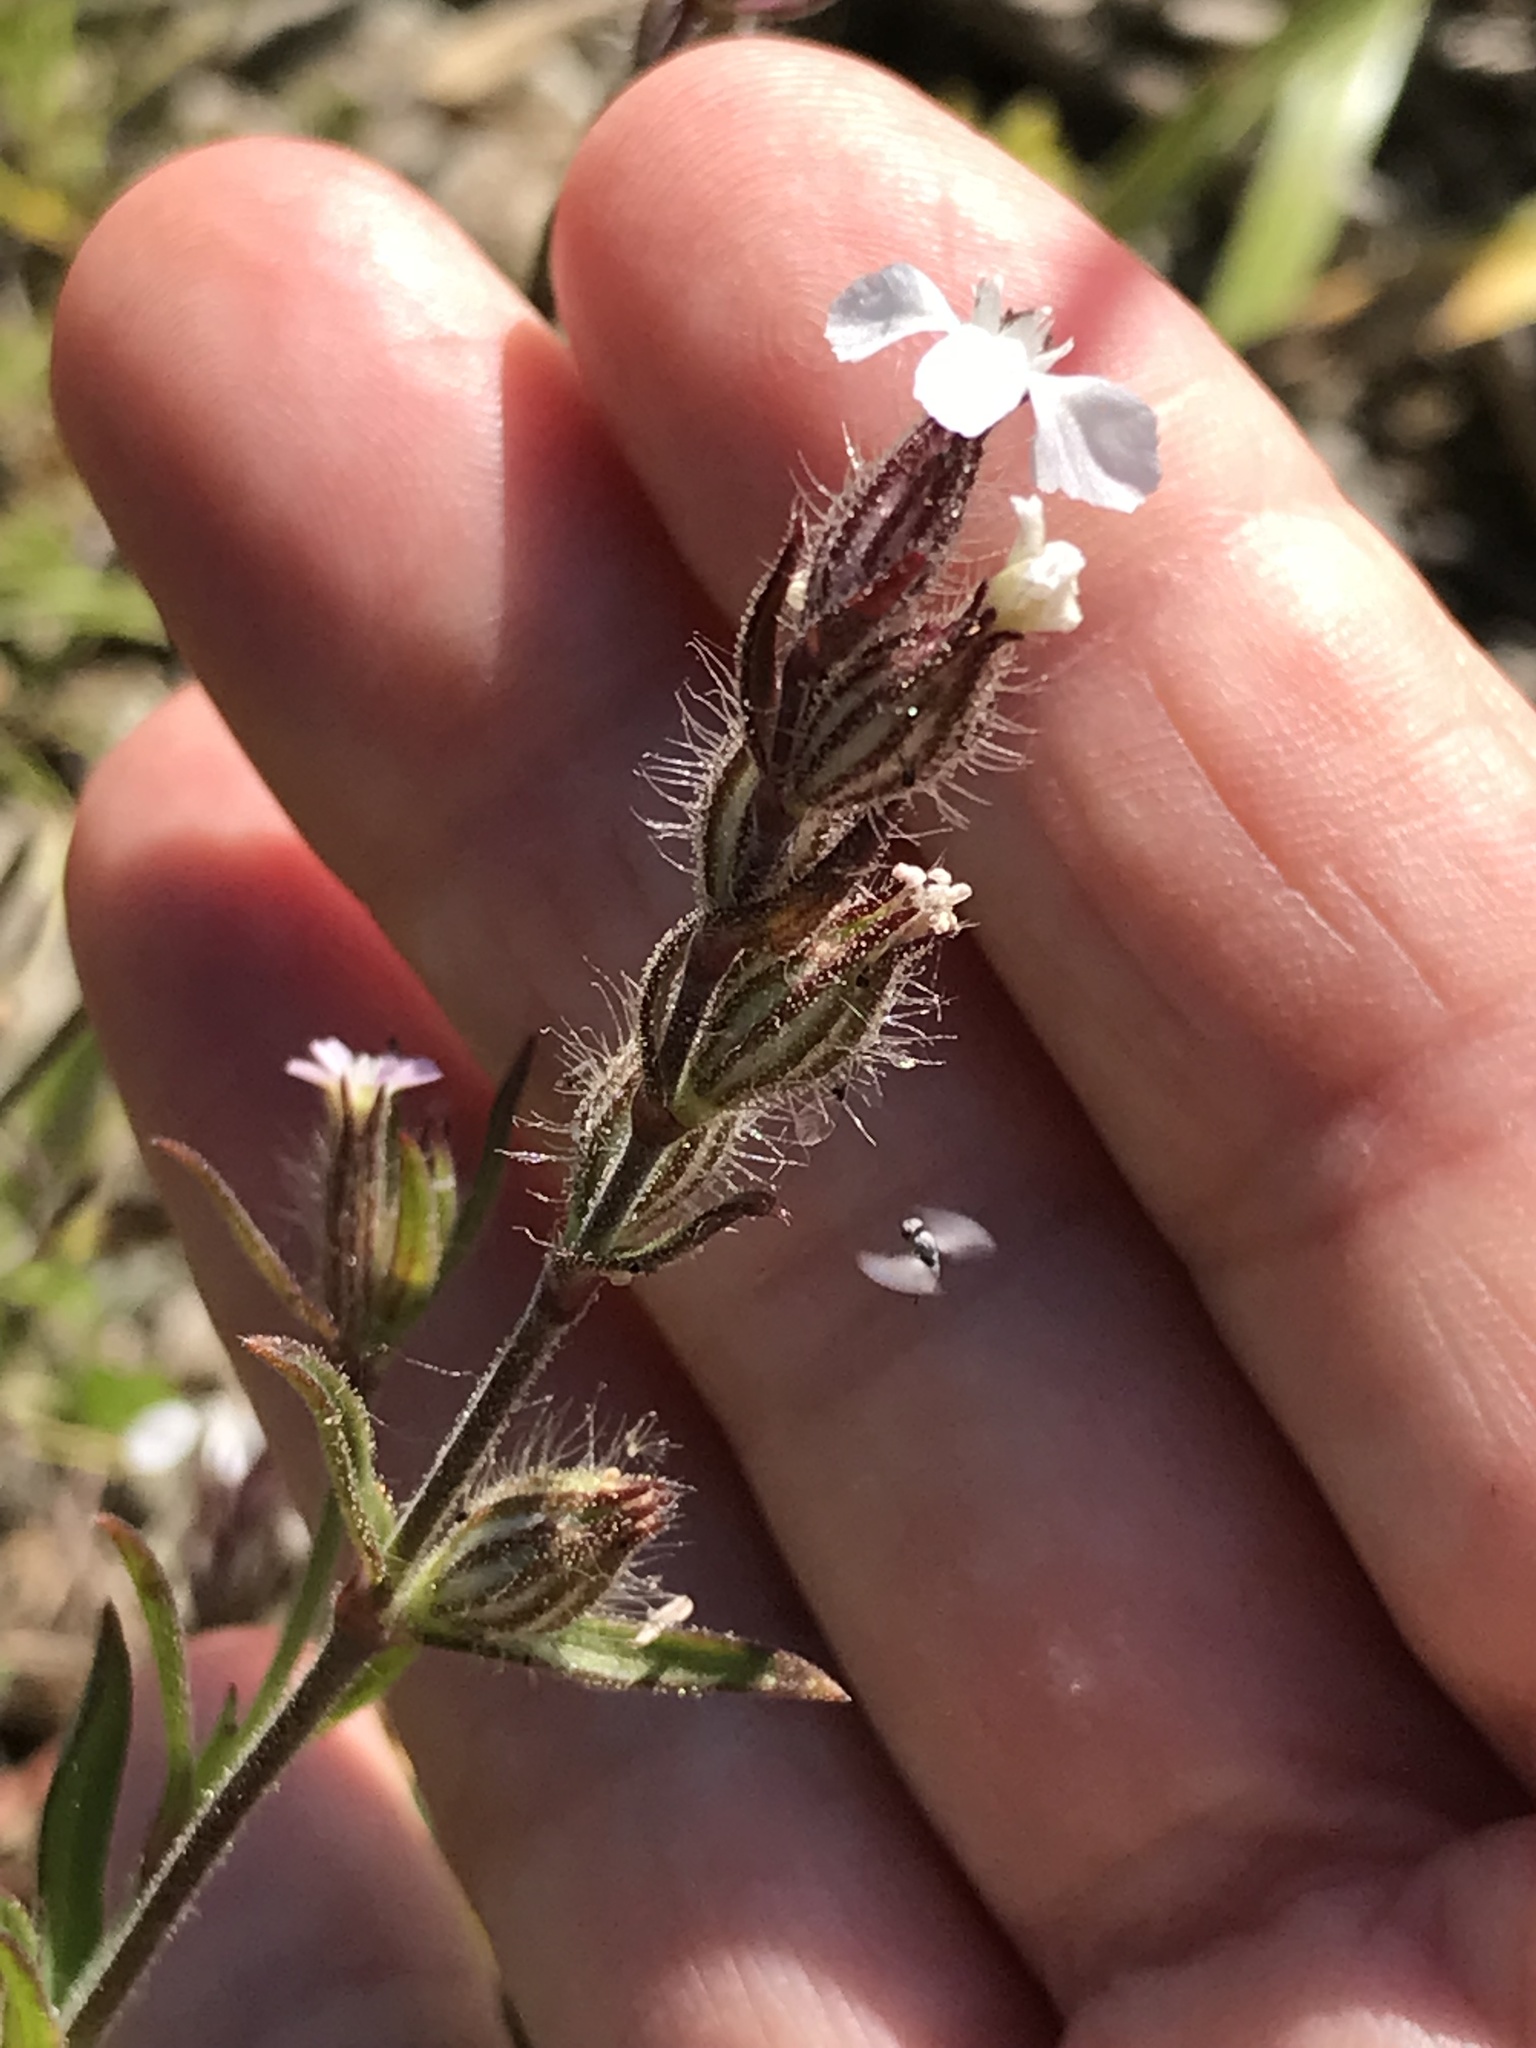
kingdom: Plantae
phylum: Tracheophyta
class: Magnoliopsida
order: Caryophyllales
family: Caryophyllaceae
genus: Silene
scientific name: Silene gallica
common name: Small-flowered catchfly
